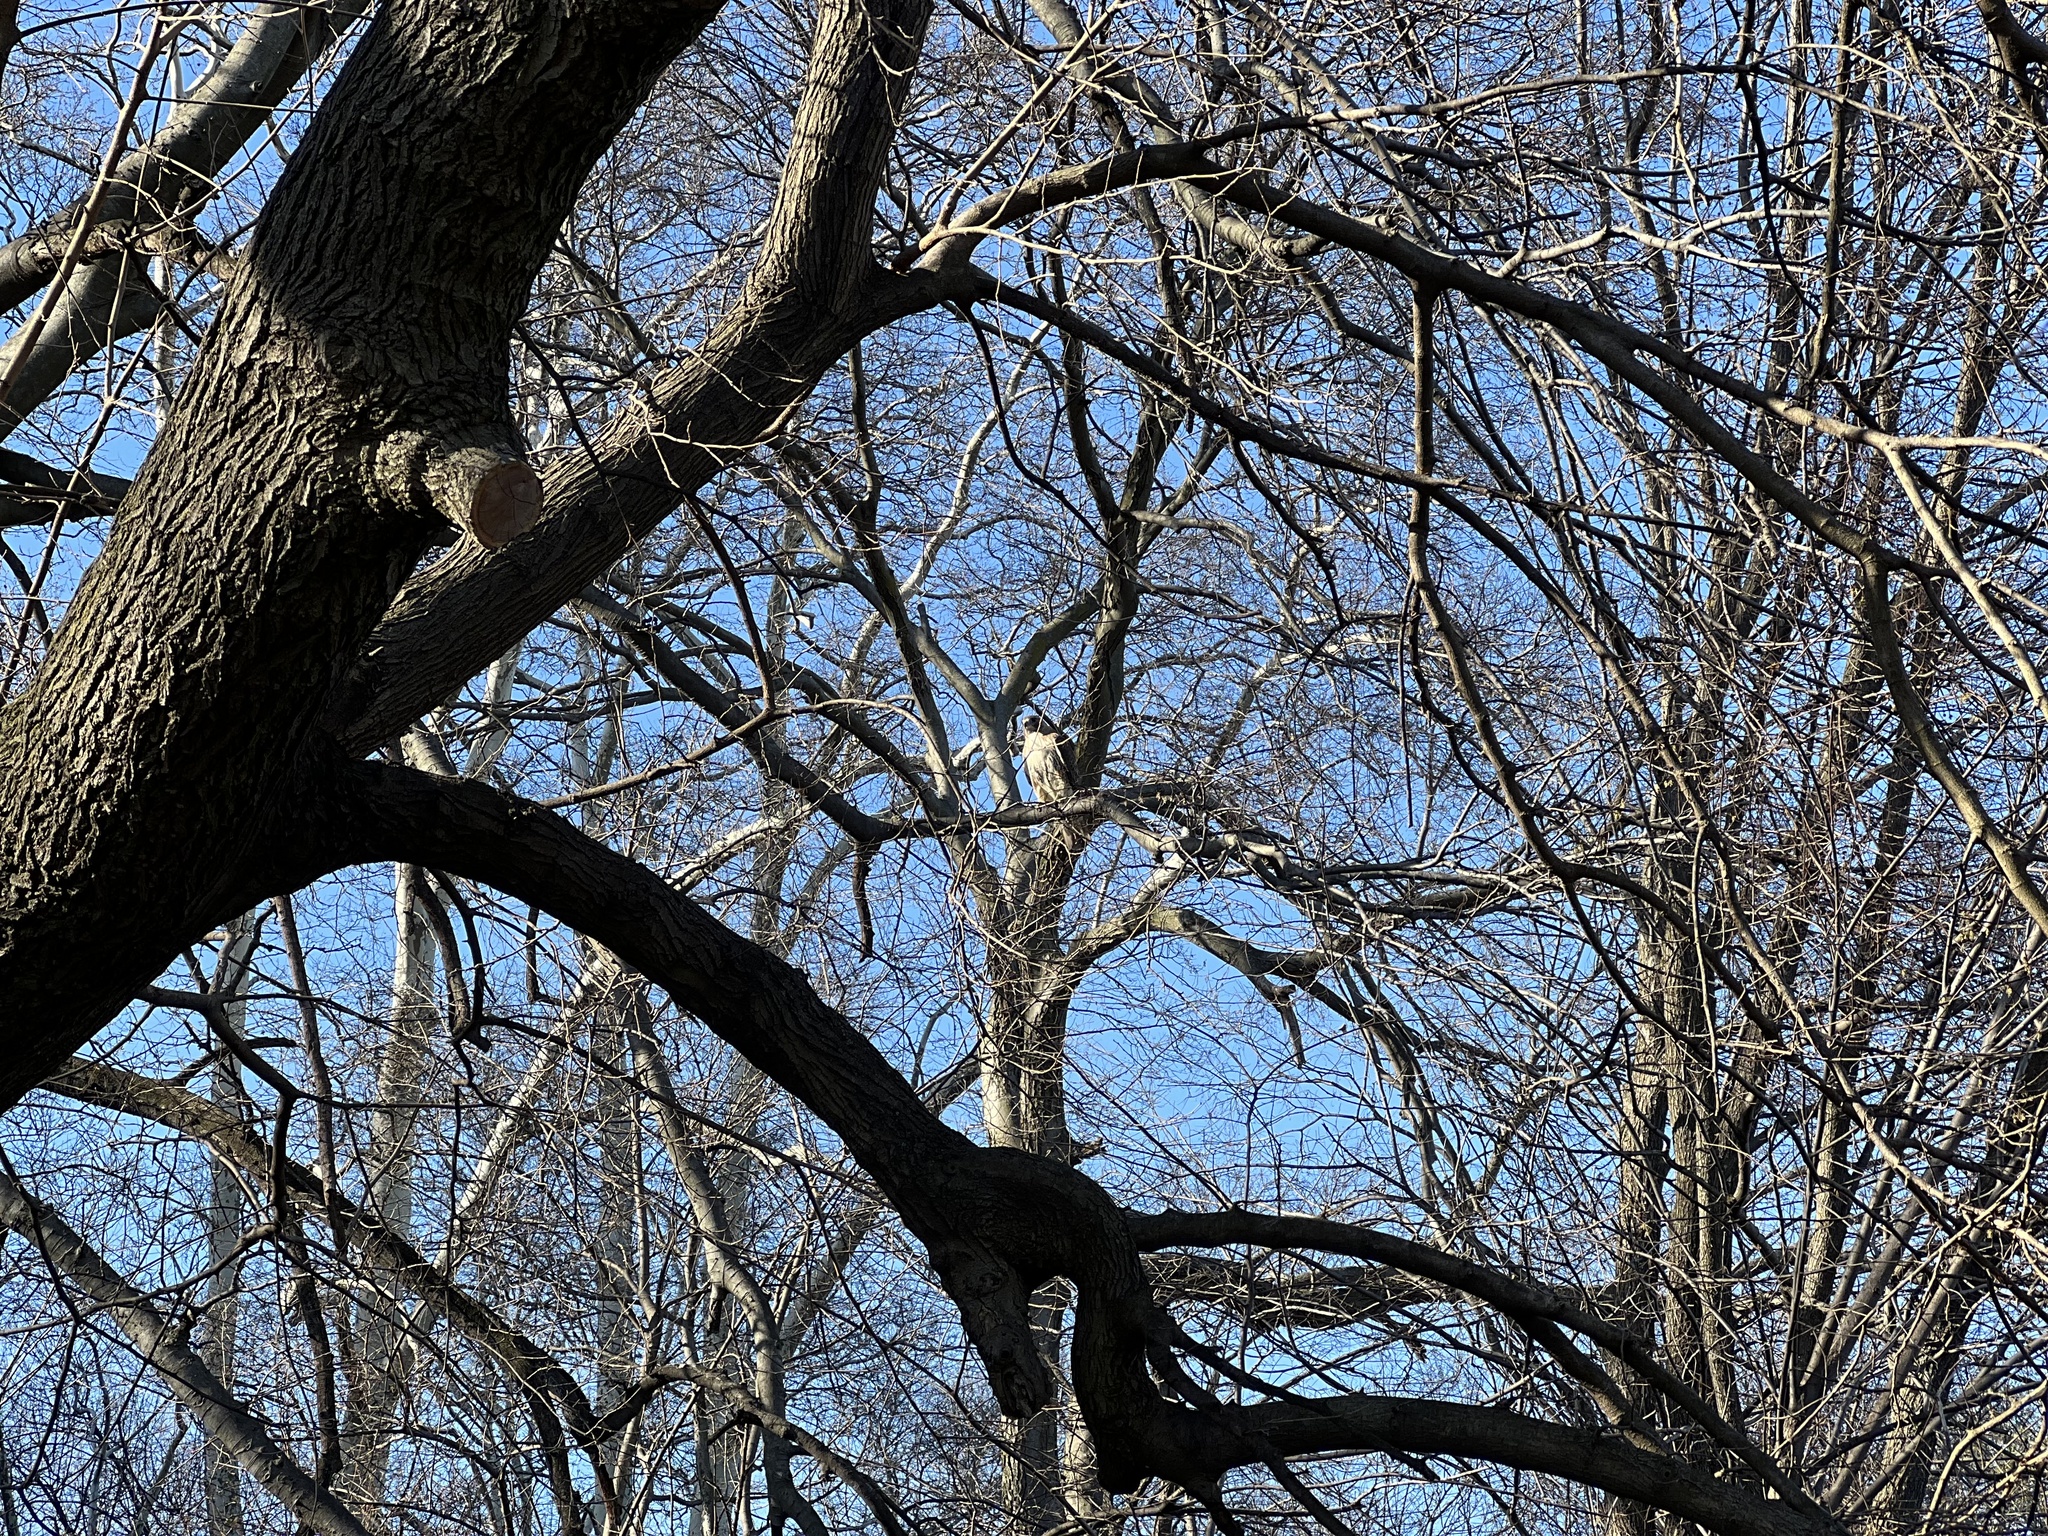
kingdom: Animalia
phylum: Chordata
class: Aves
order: Accipitriformes
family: Accipitridae
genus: Buteo
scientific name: Buteo jamaicensis
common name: Red-tailed hawk
